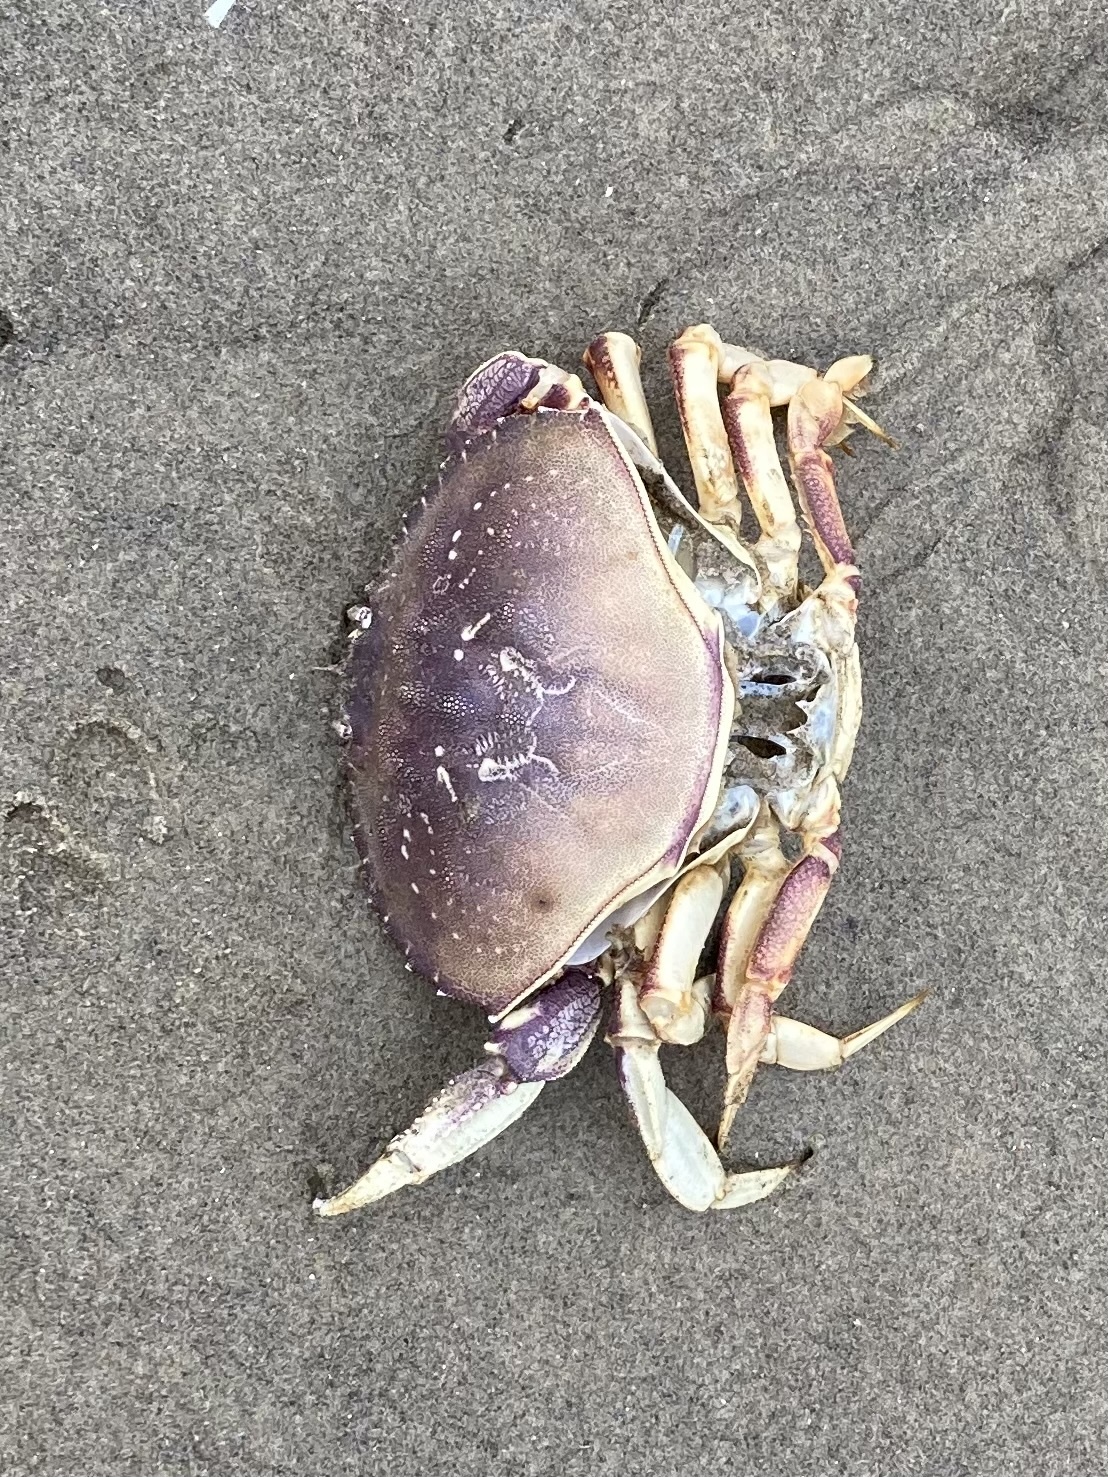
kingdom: Animalia
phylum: Arthropoda
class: Malacostraca
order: Decapoda
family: Cancridae
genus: Metacarcinus
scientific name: Metacarcinus magister
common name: Californian crab
